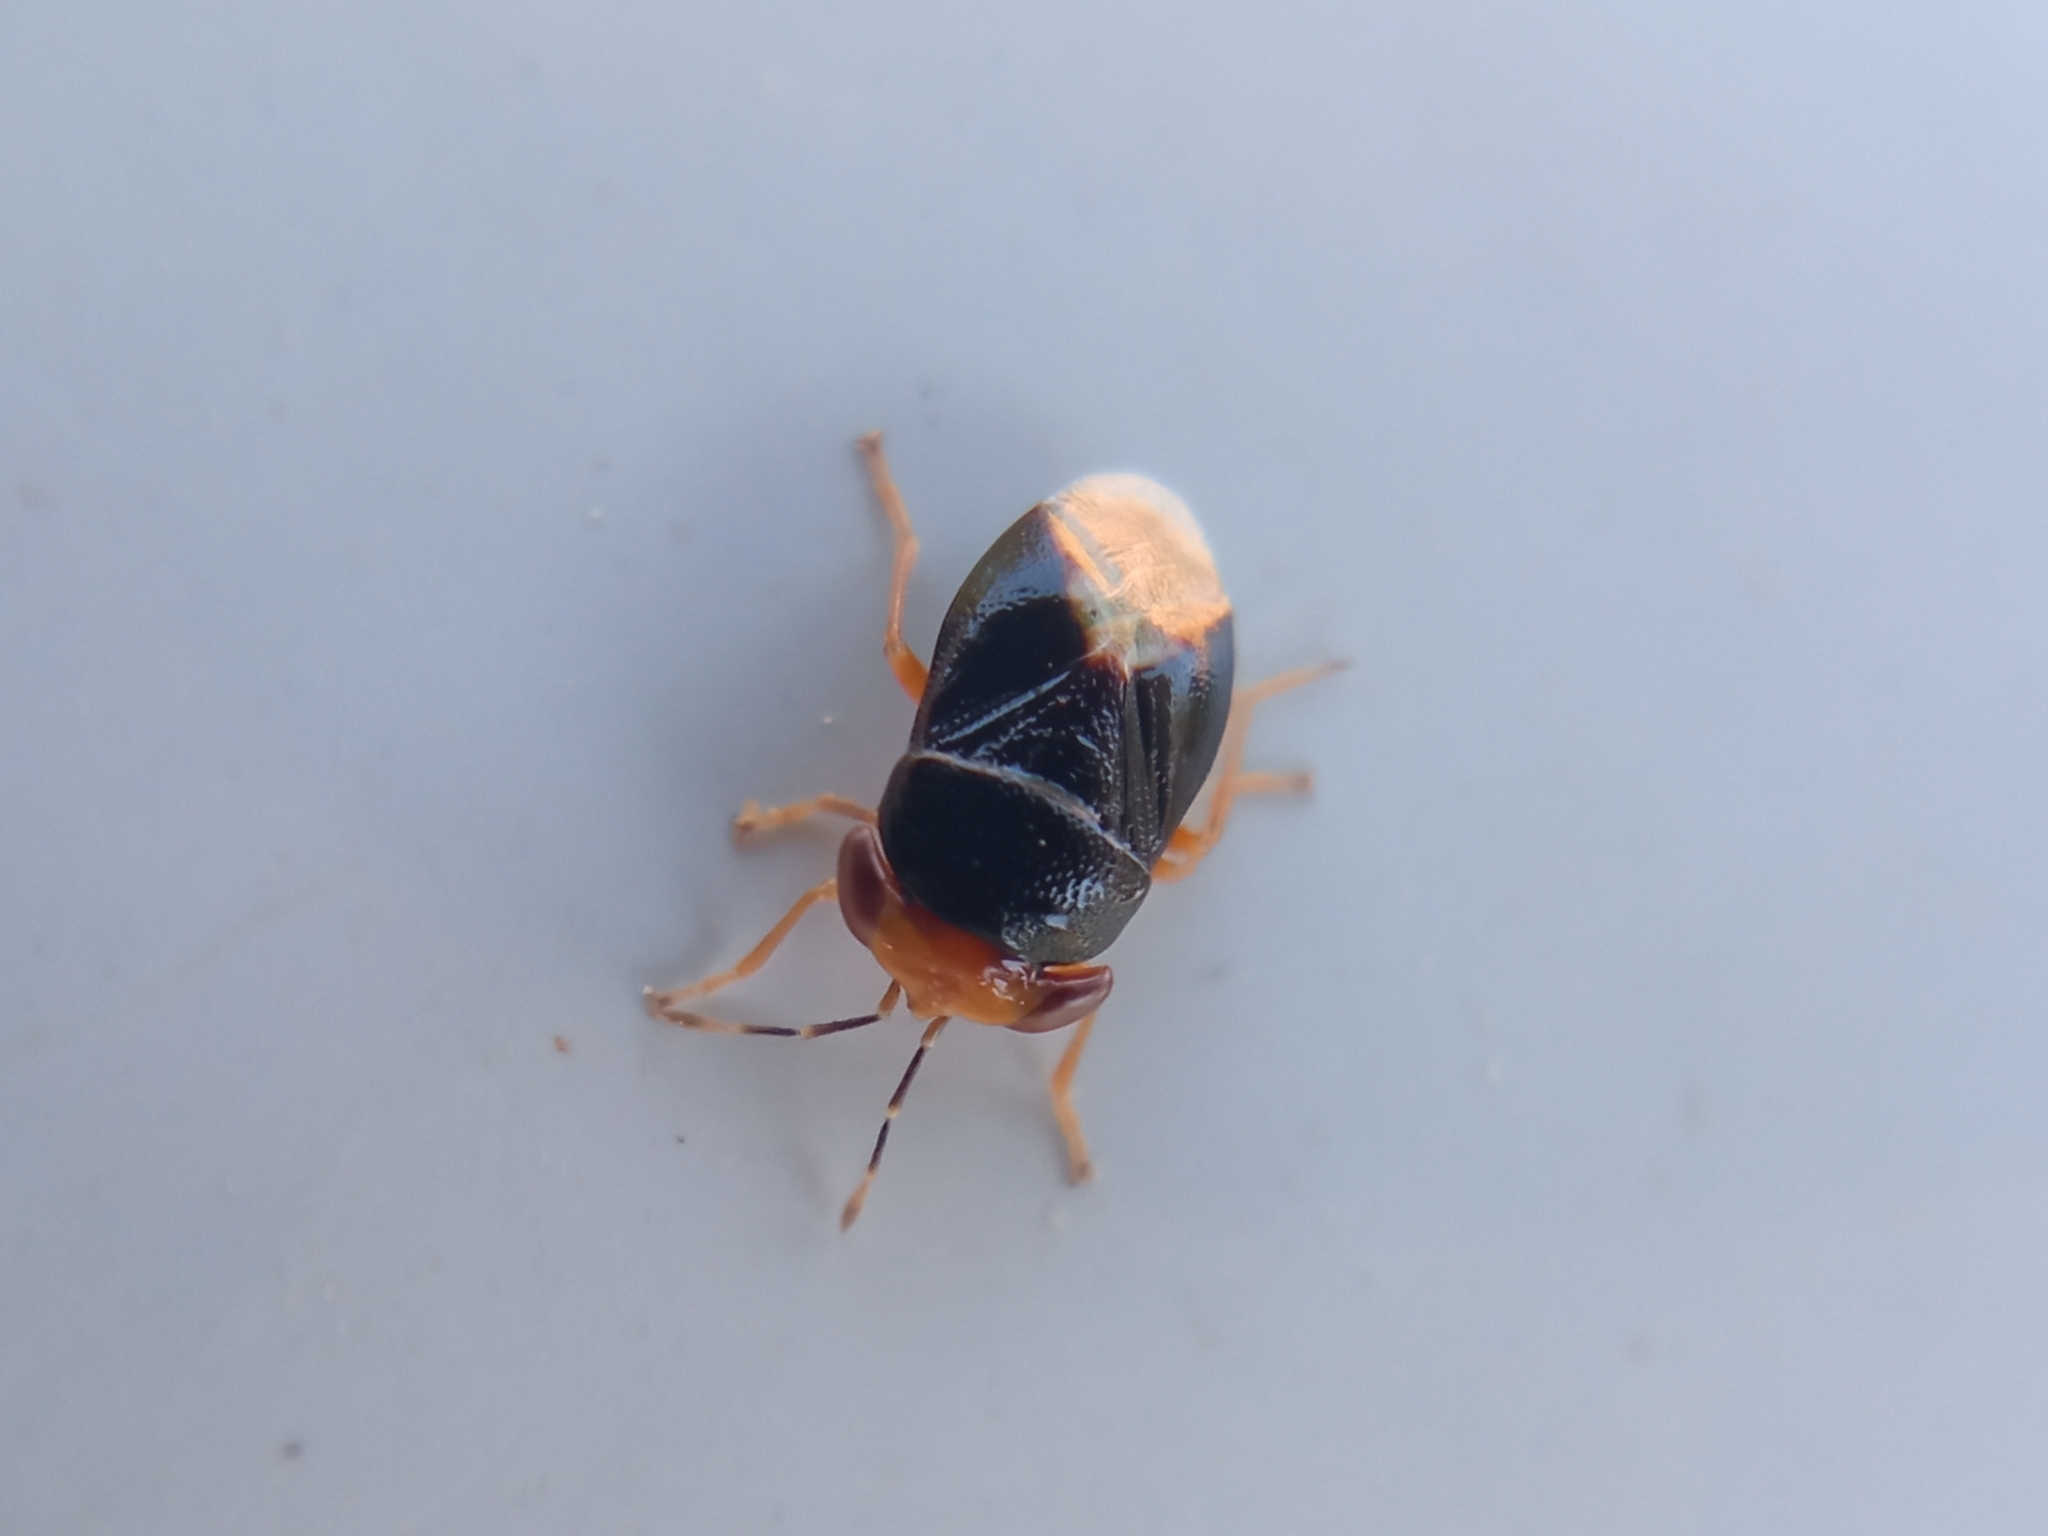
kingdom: Animalia
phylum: Arthropoda
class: Insecta
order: Hemiptera
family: Geocoridae
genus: Geocoris
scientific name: Geocoris erythrocephala
